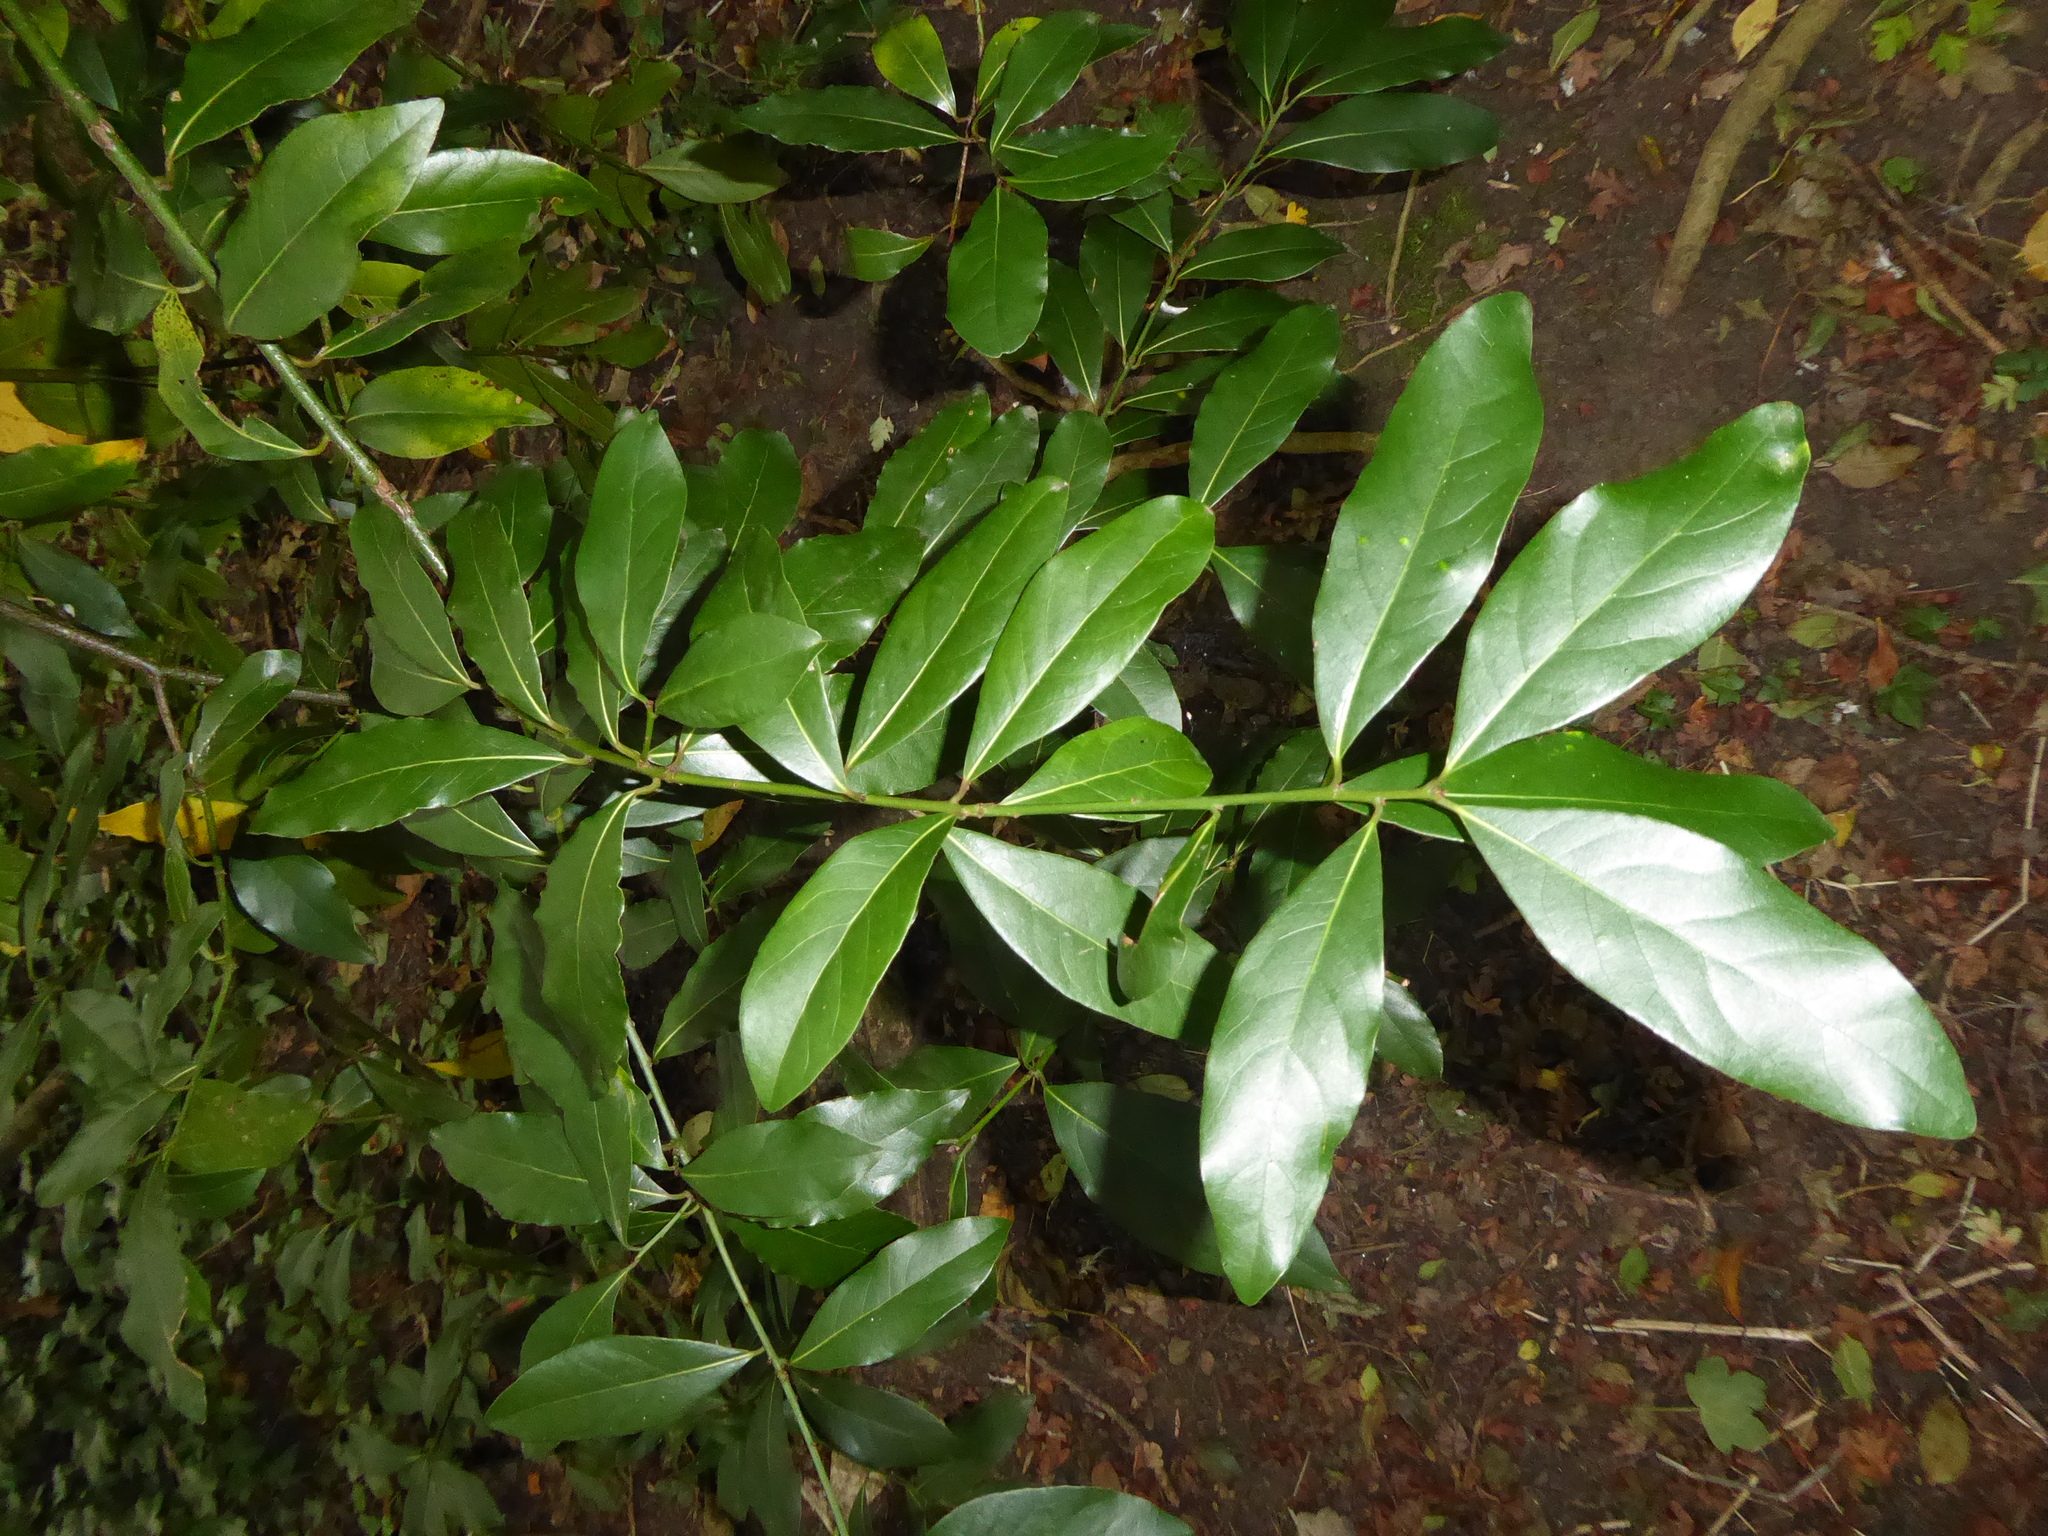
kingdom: Plantae
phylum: Tracheophyta
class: Magnoliopsida
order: Laurales
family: Lauraceae
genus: Laurus
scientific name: Laurus nobilis
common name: Bay
